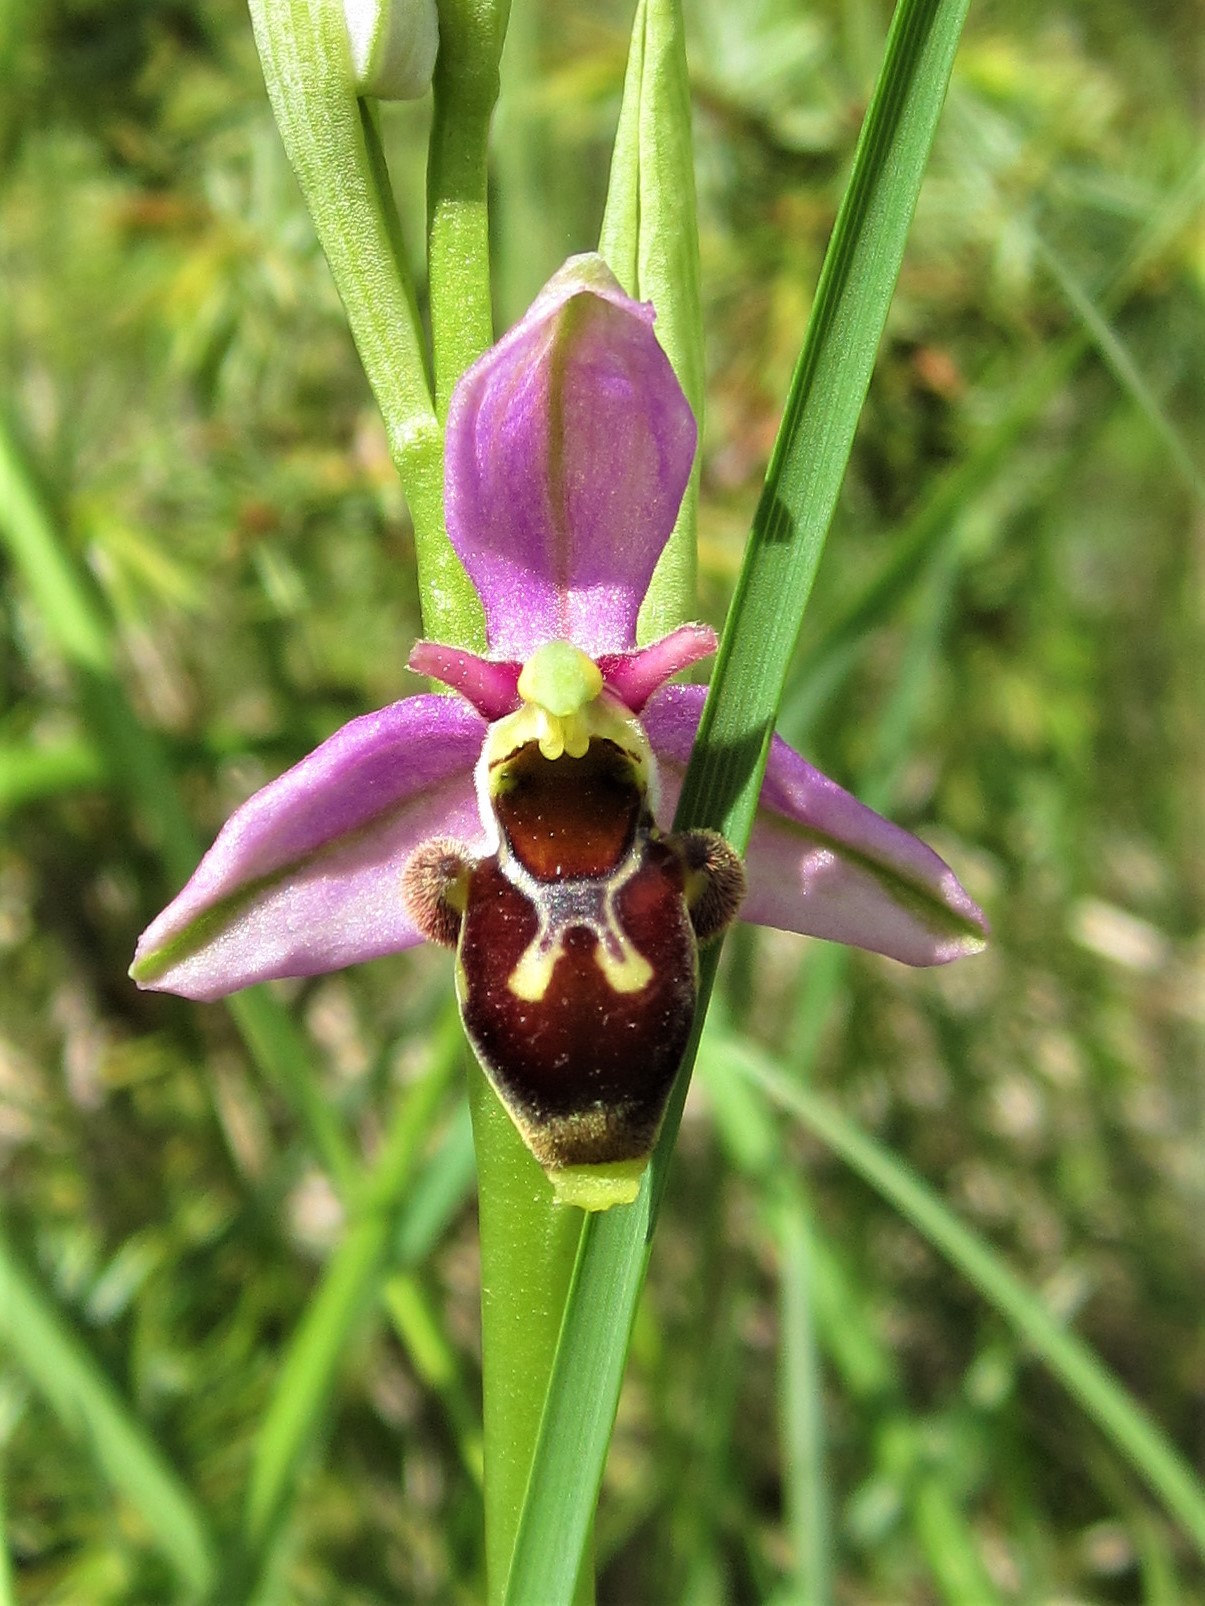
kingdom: Plantae
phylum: Tracheophyta
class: Liliopsida
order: Asparagales
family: Orchidaceae
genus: Ophrys
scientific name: Ophrys scolopax
